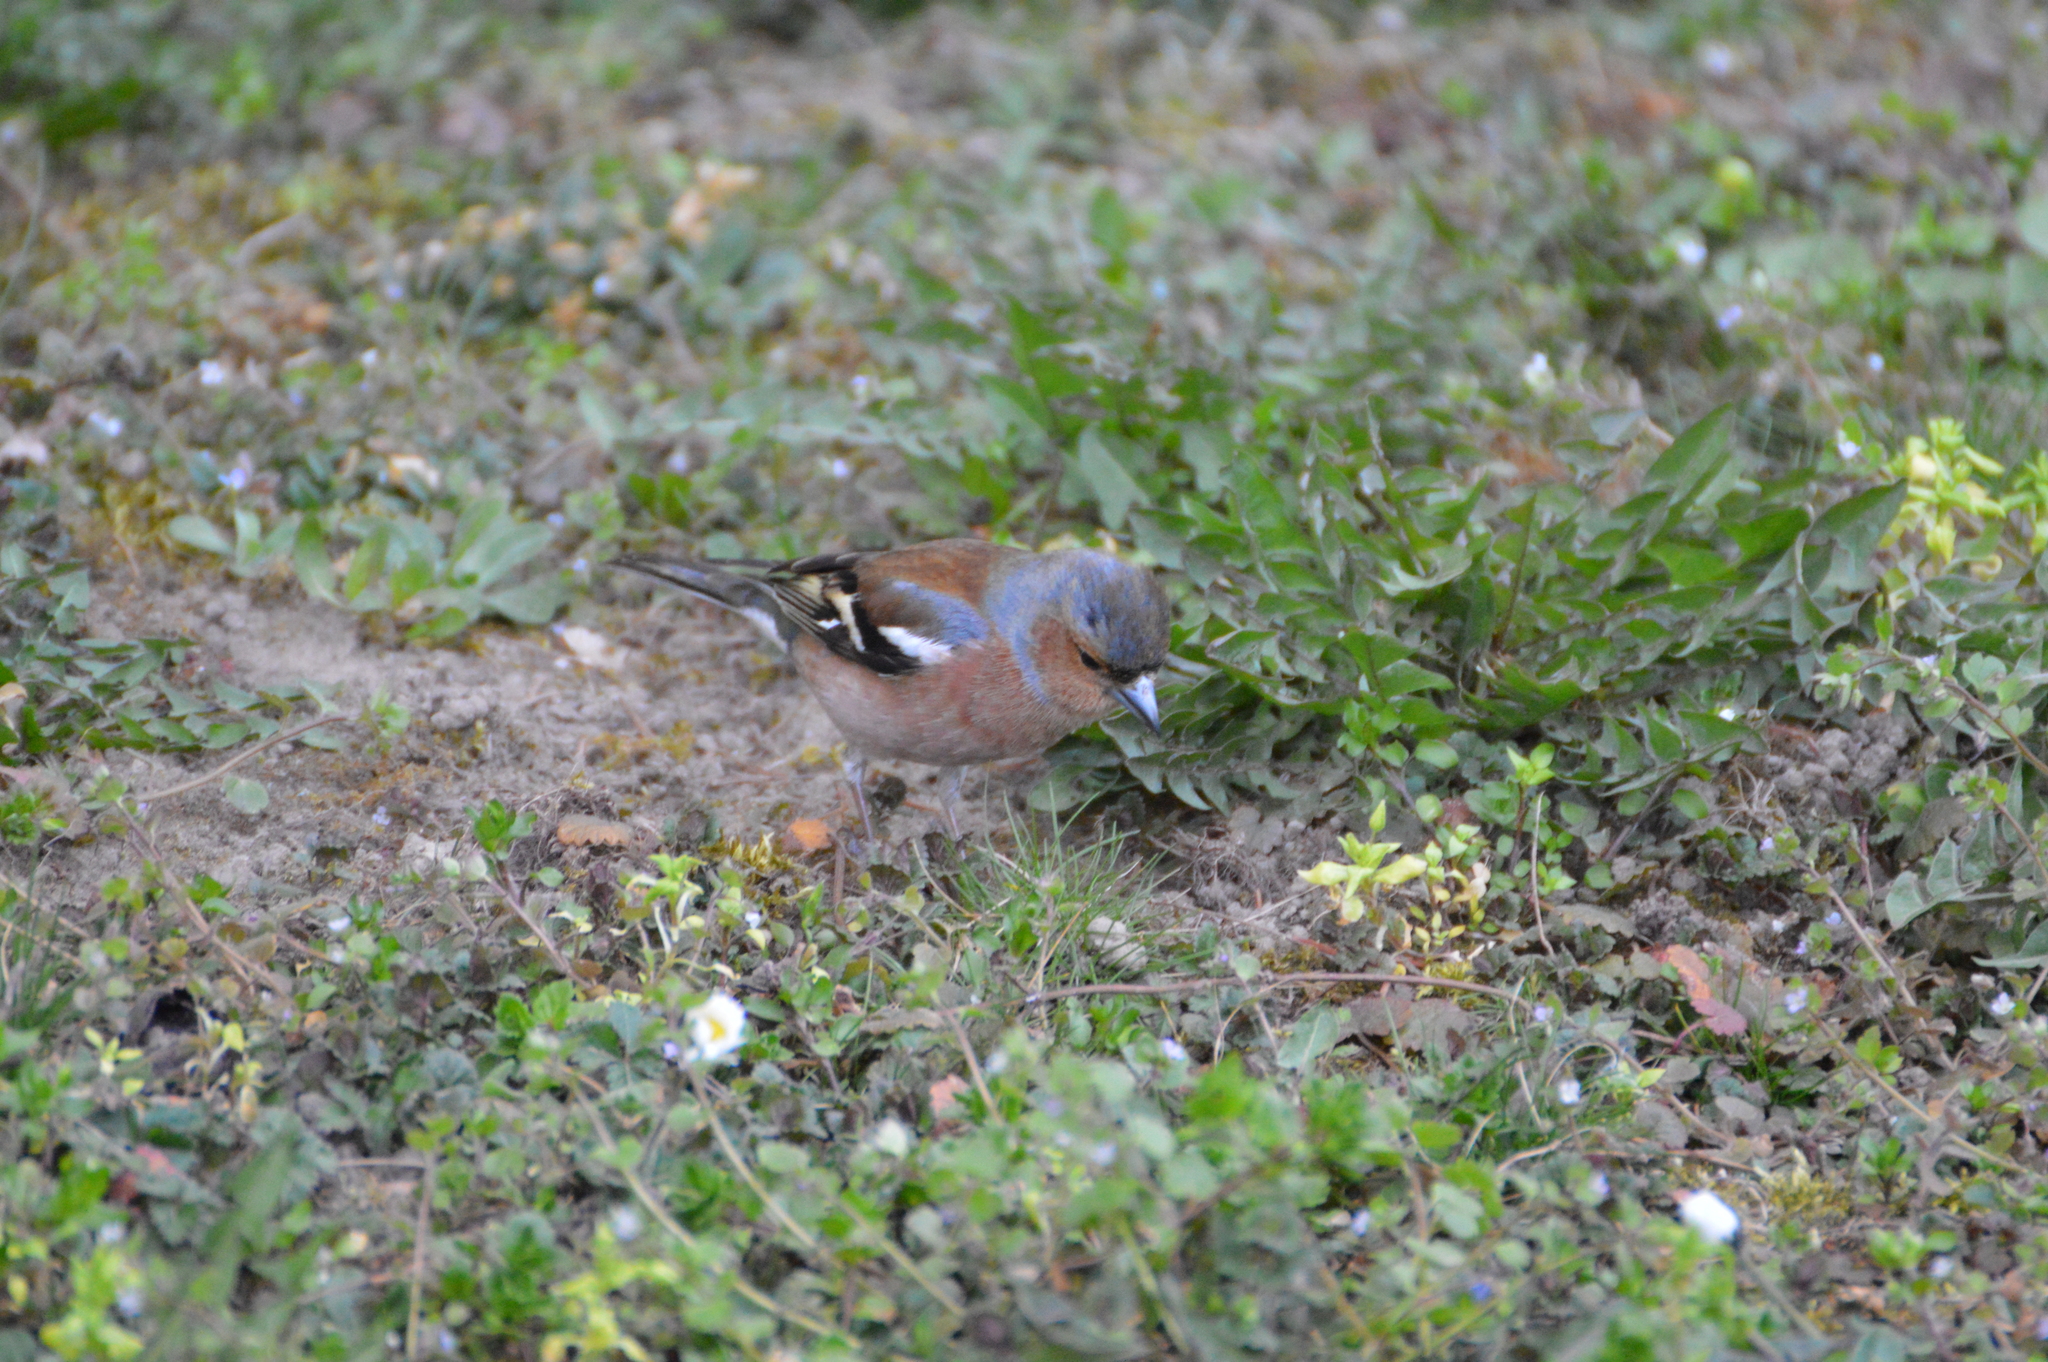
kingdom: Animalia
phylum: Chordata
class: Aves
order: Passeriformes
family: Fringillidae
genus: Fringilla
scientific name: Fringilla coelebs
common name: Common chaffinch
